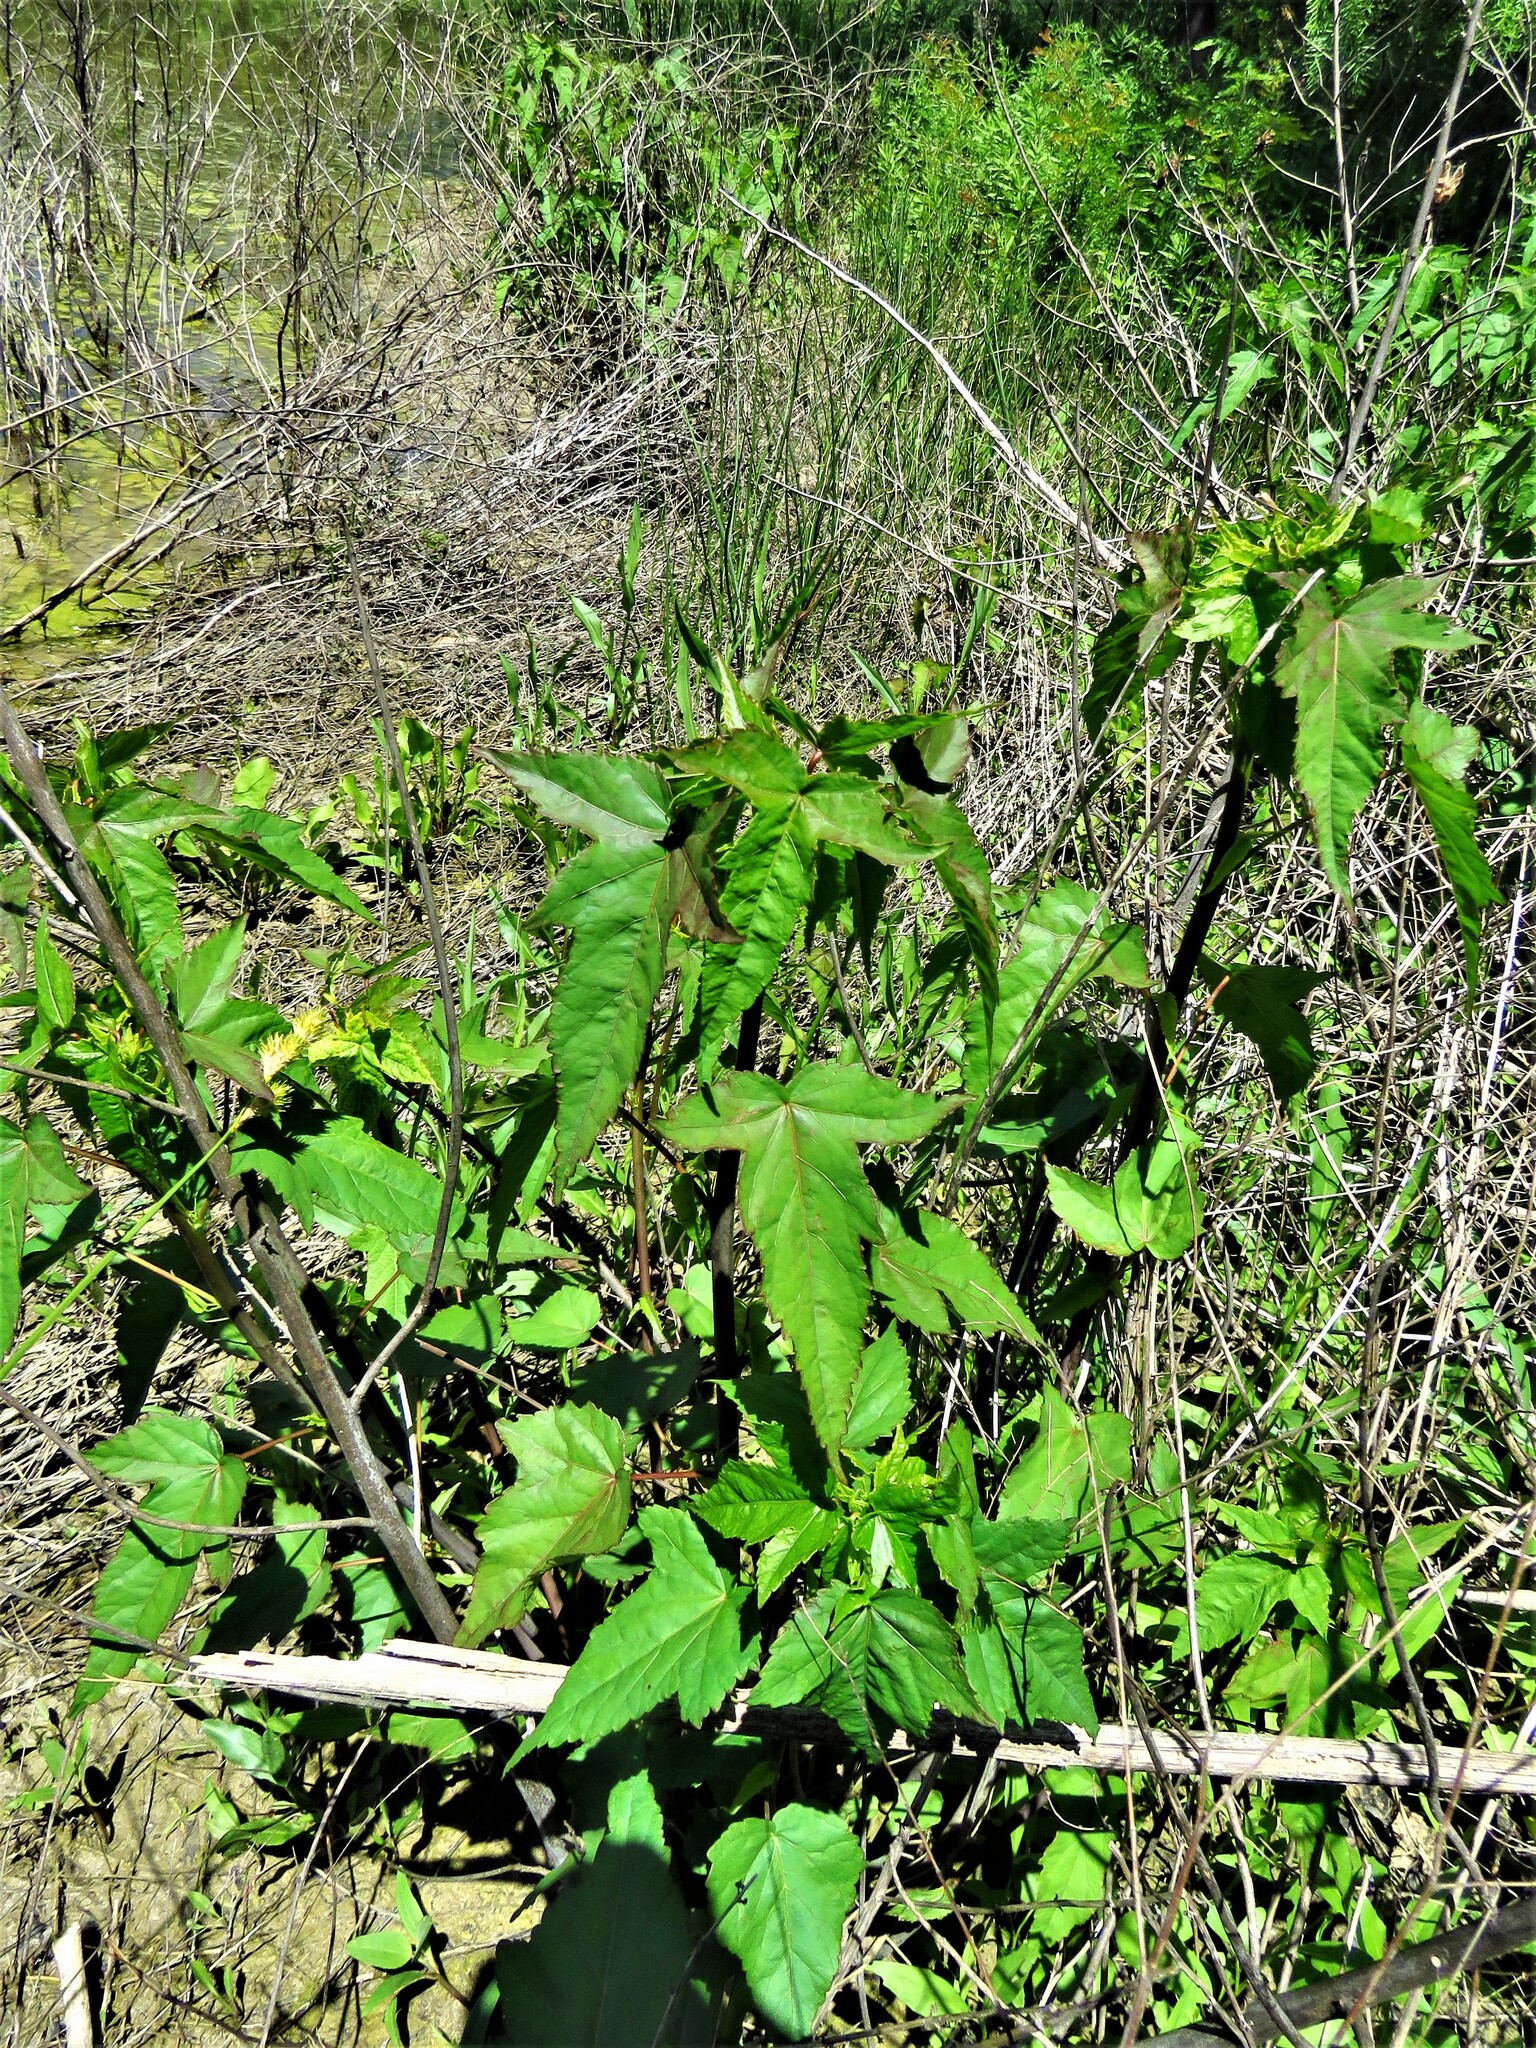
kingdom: Plantae
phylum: Tracheophyta
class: Magnoliopsida
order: Malvales
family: Malvaceae
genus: Hibiscus
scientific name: Hibiscus laevis
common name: Scarlet rose-mallow
